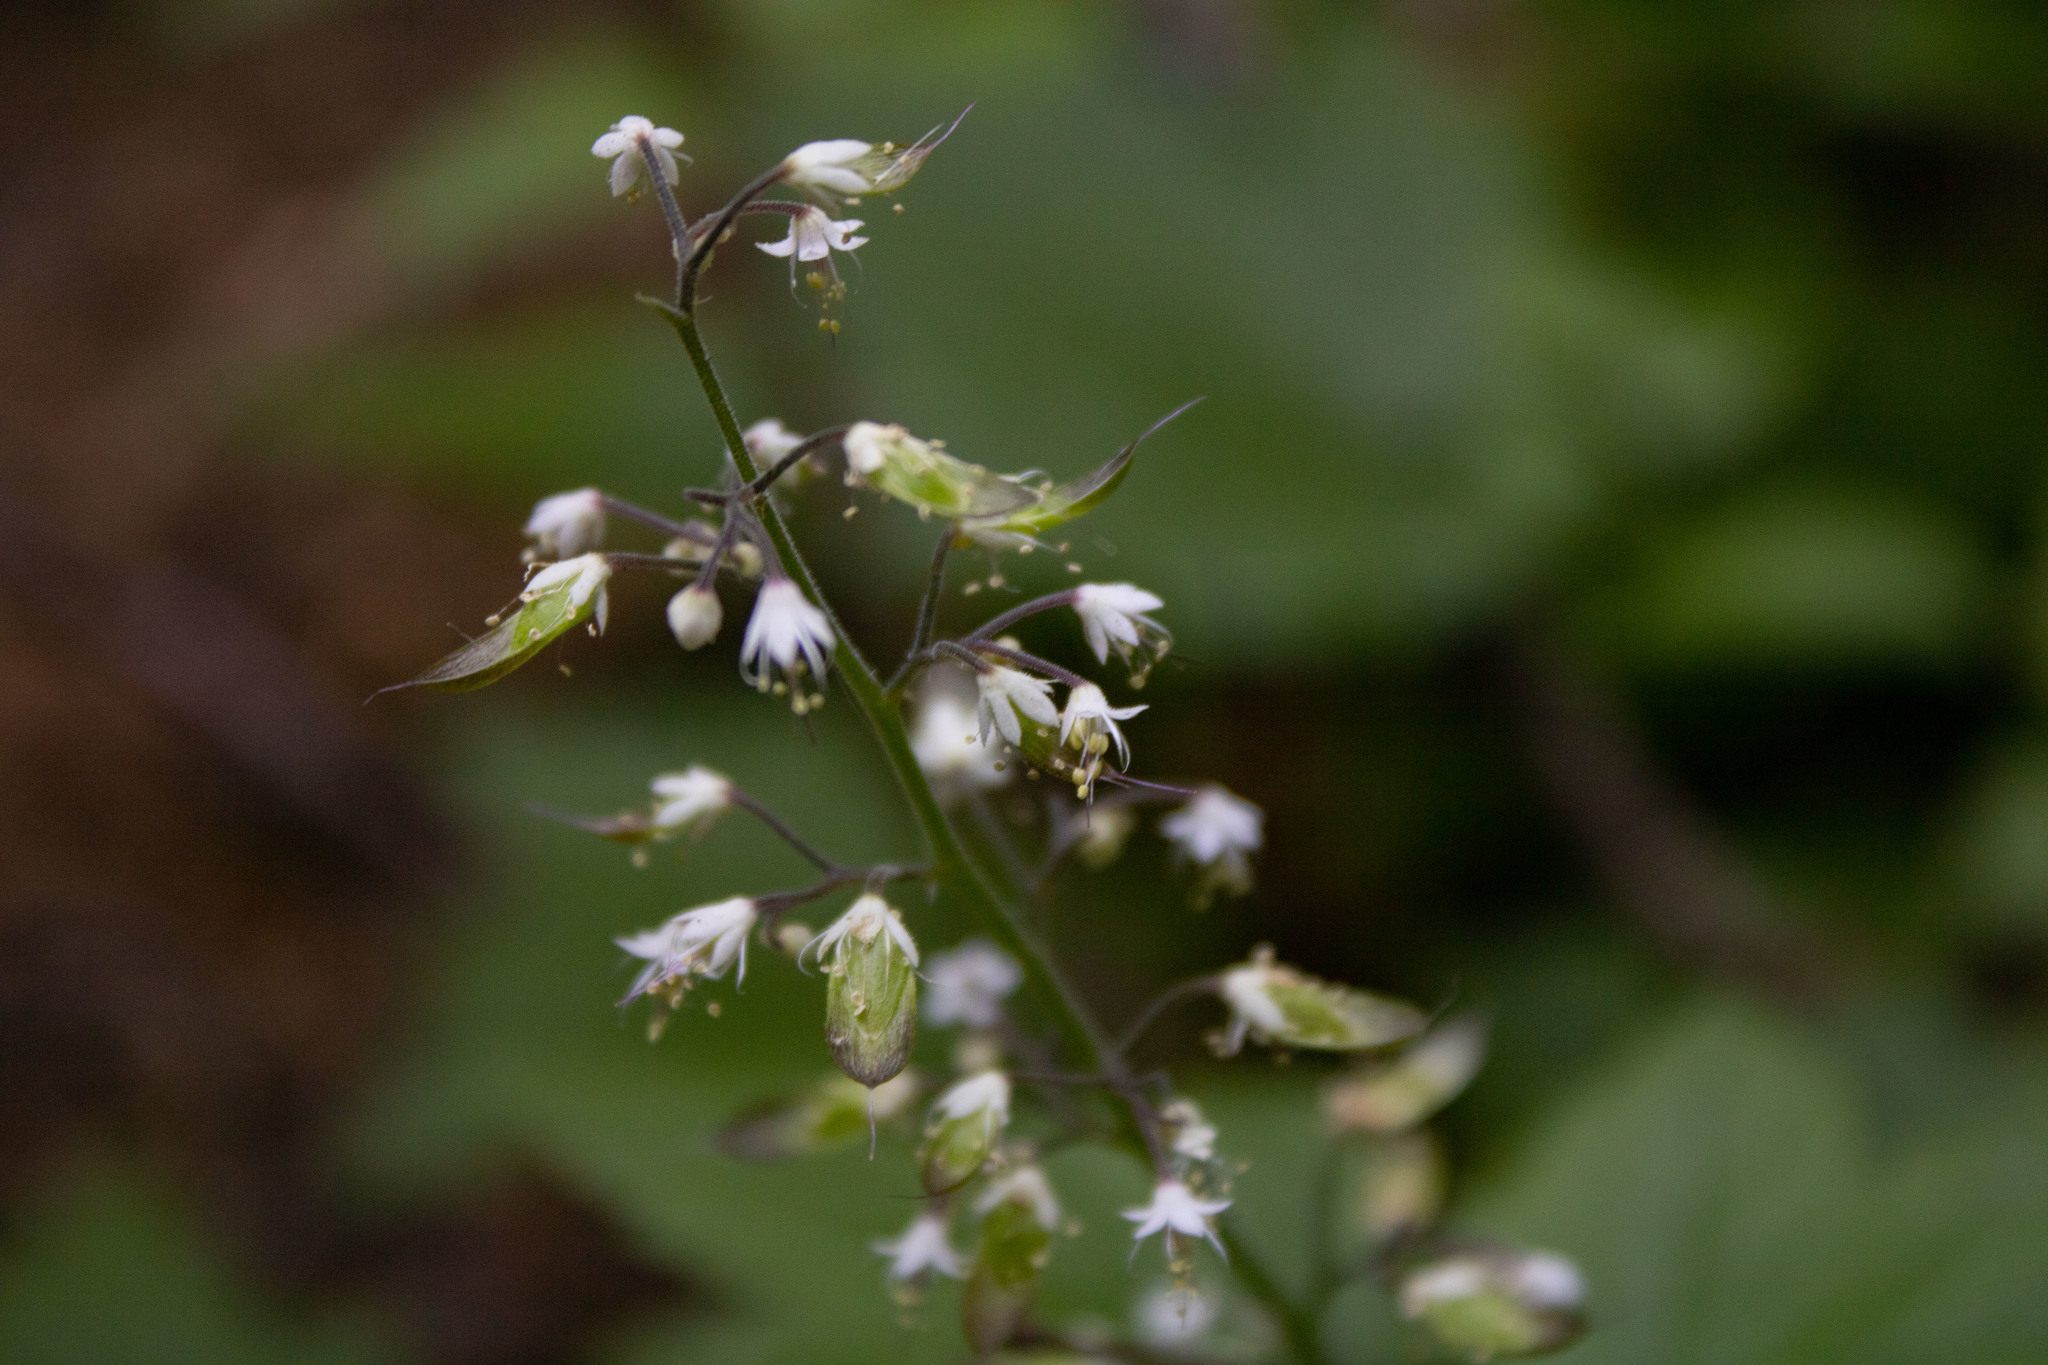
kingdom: Plantae
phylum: Tracheophyta
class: Magnoliopsida
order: Saxifragales
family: Saxifragaceae
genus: Tiarella
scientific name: Tiarella trifoliata
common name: Sugar-scoop
